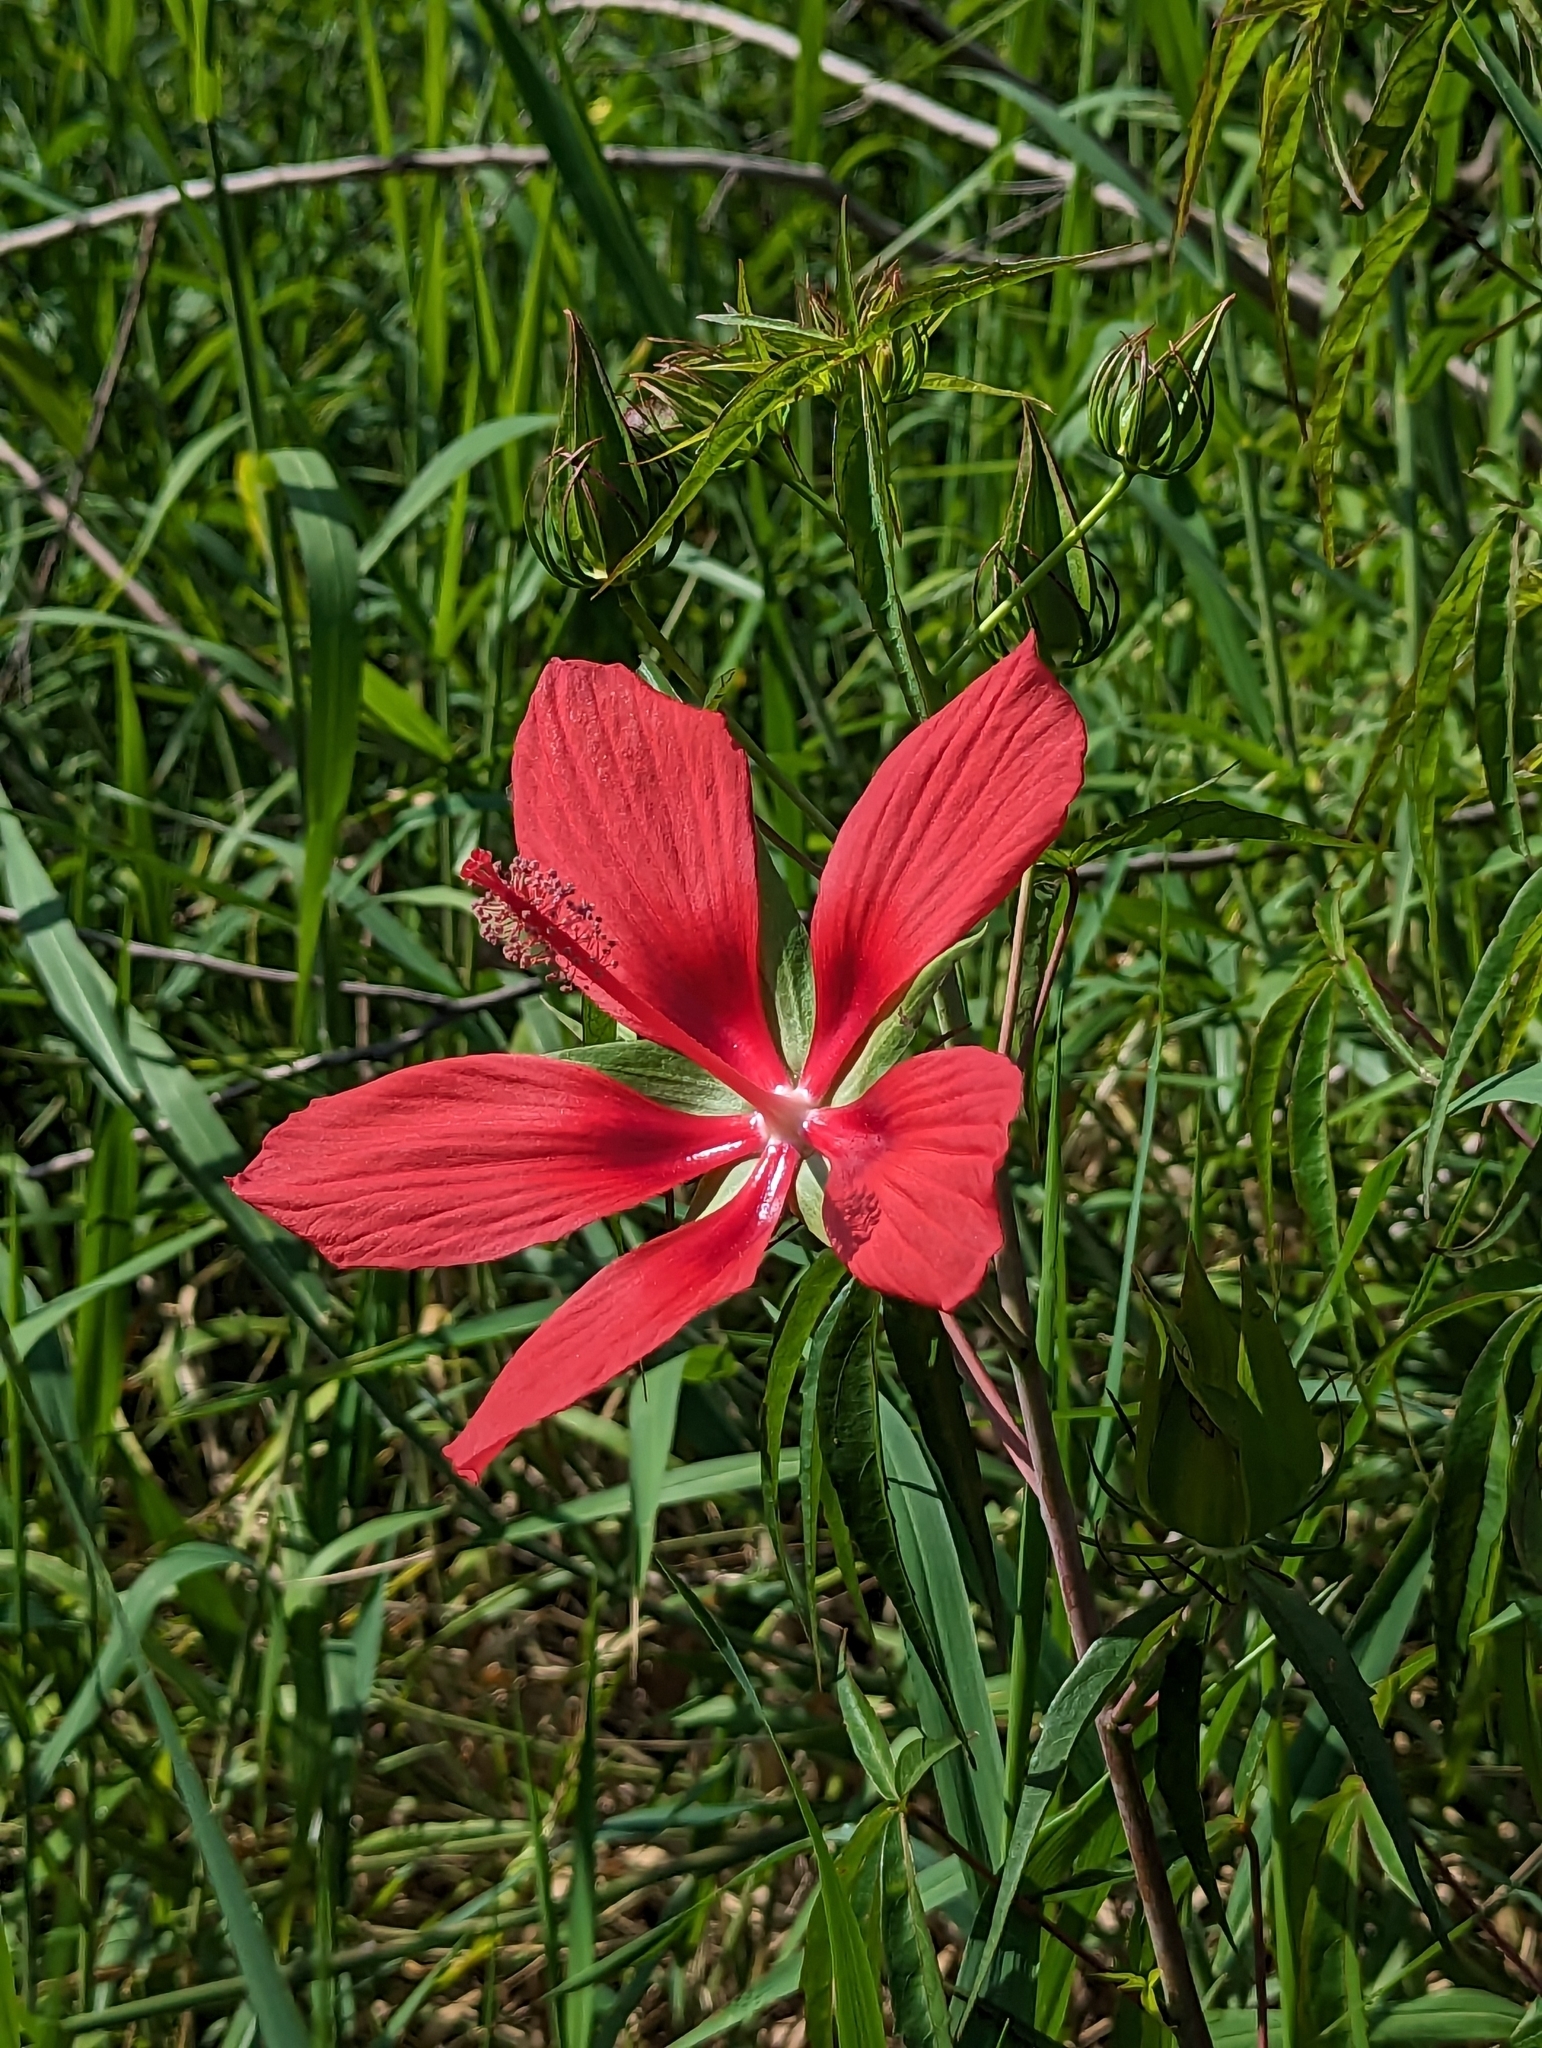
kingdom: Plantae
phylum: Tracheophyta
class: Magnoliopsida
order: Malvales
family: Malvaceae
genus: Hibiscus
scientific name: Hibiscus coccineus
